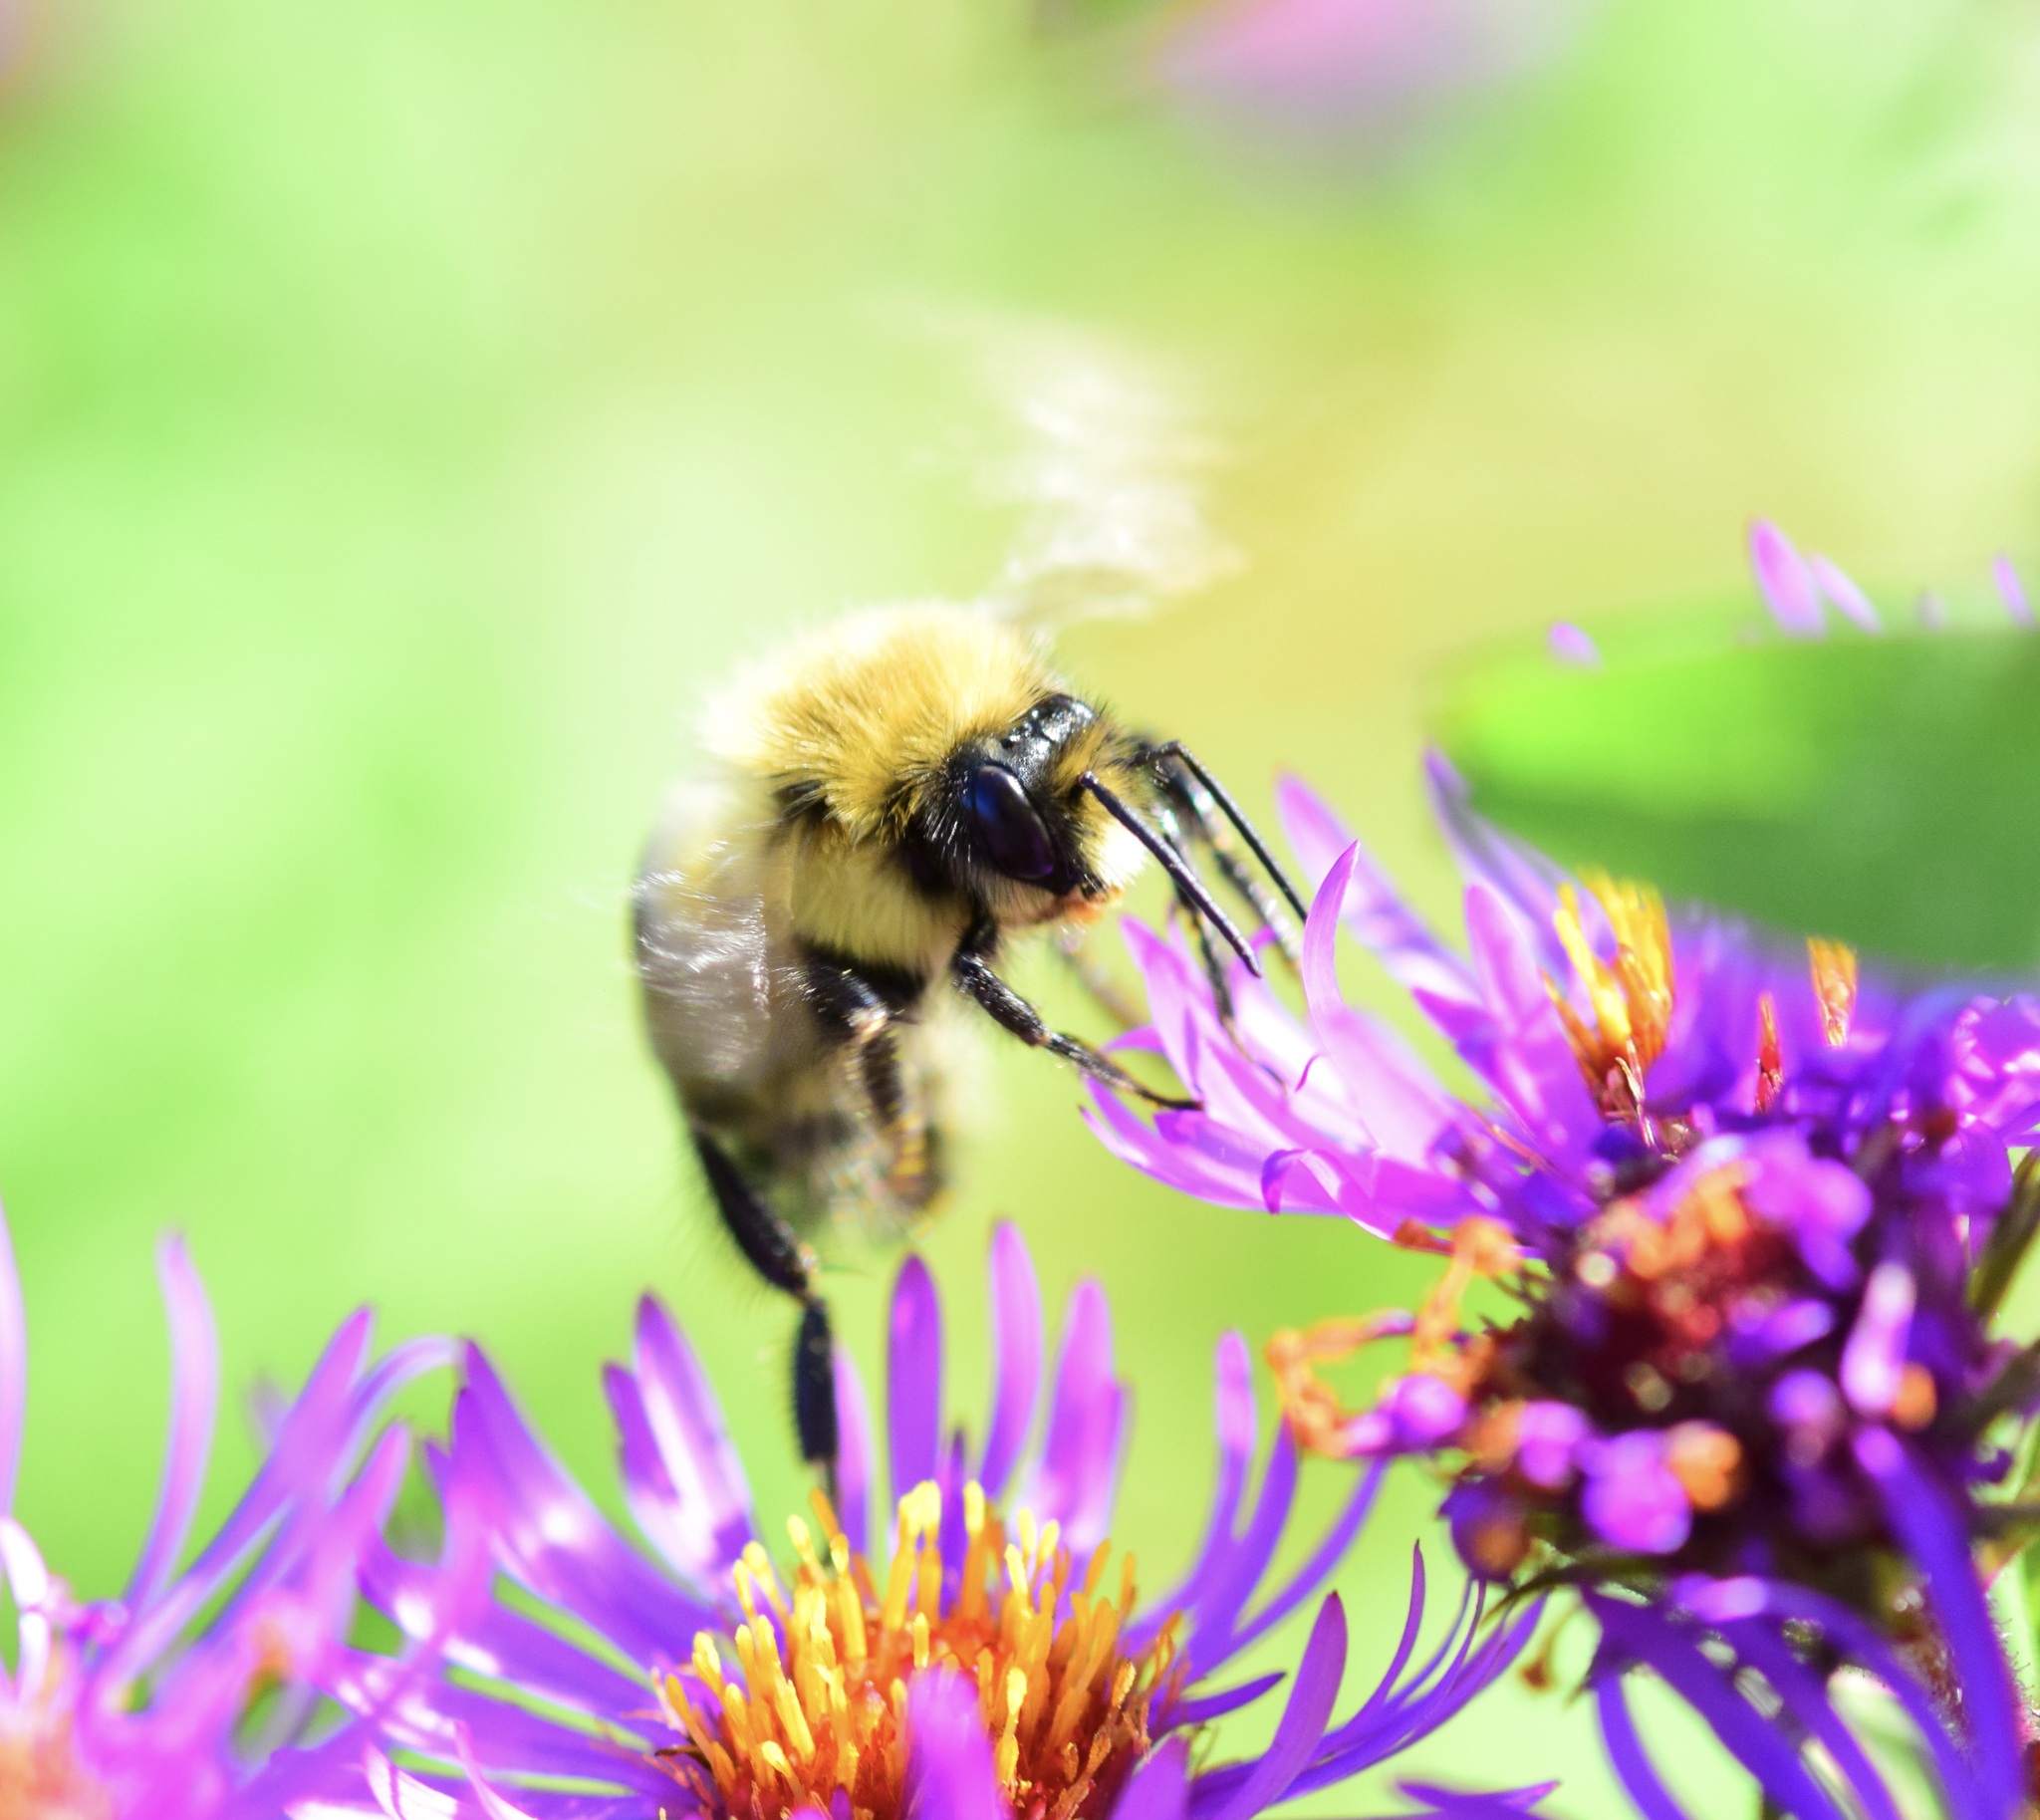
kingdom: Animalia
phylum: Arthropoda
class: Insecta
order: Hymenoptera
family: Apidae
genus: Bombus
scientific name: Bombus impatiens
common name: Common eastern bumble bee
